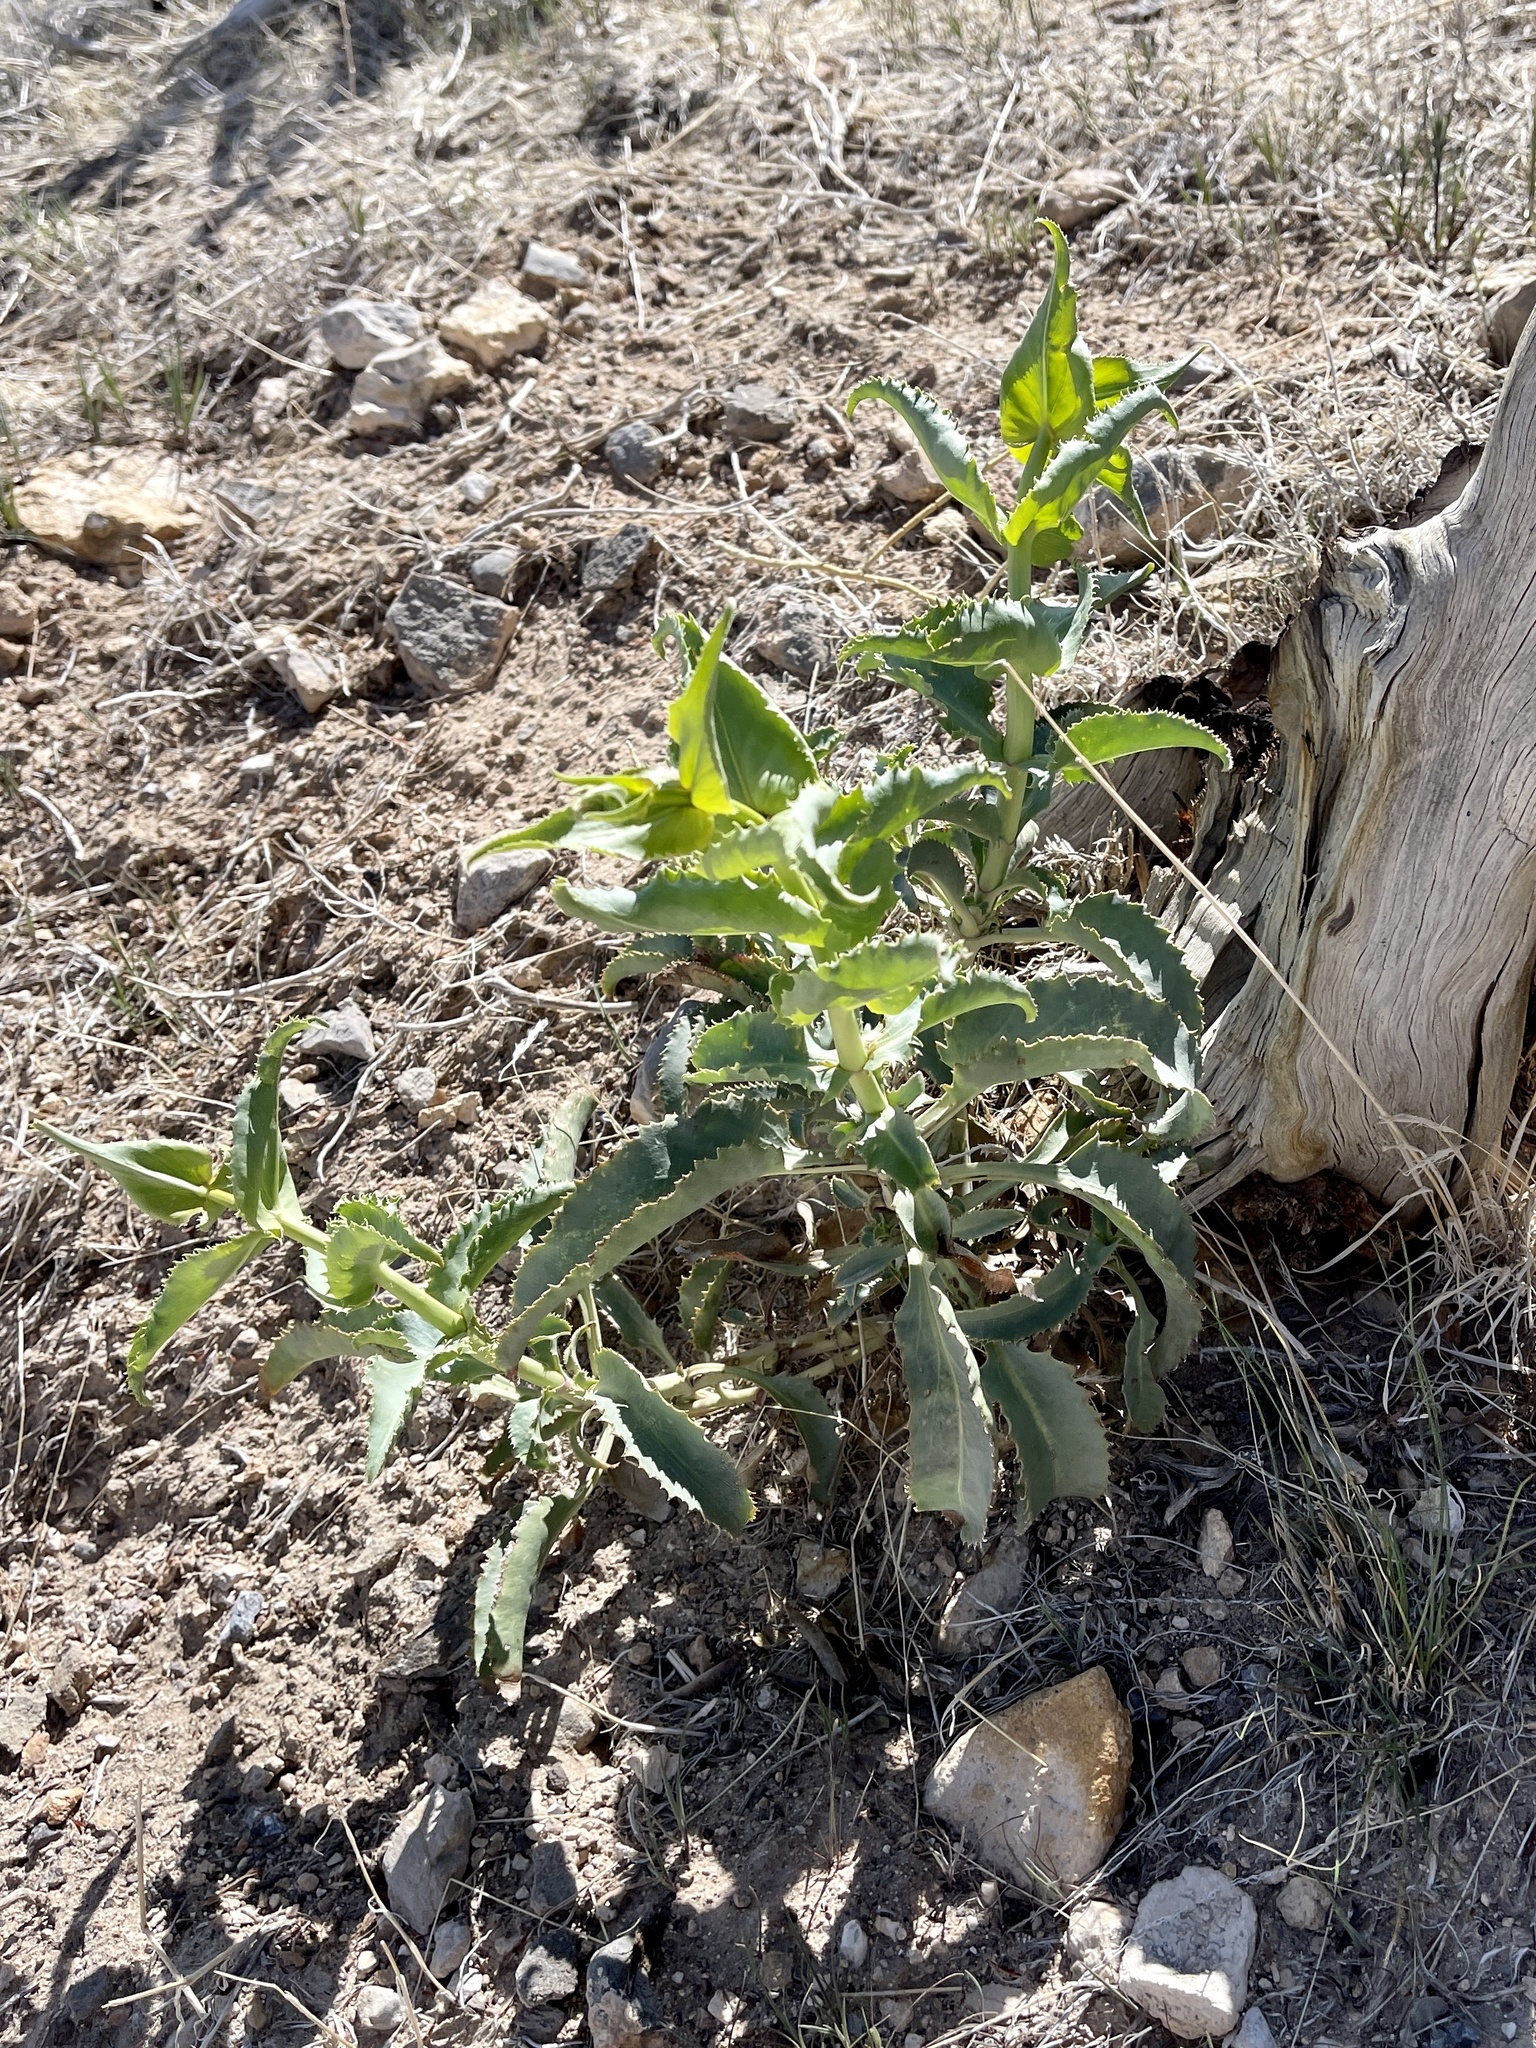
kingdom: Plantae
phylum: Tracheophyta
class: Magnoliopsida
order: Lamiales
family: Plantaginaceae
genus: Penstemon
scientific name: Penstemon palmeri
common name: Palmer penstemon
